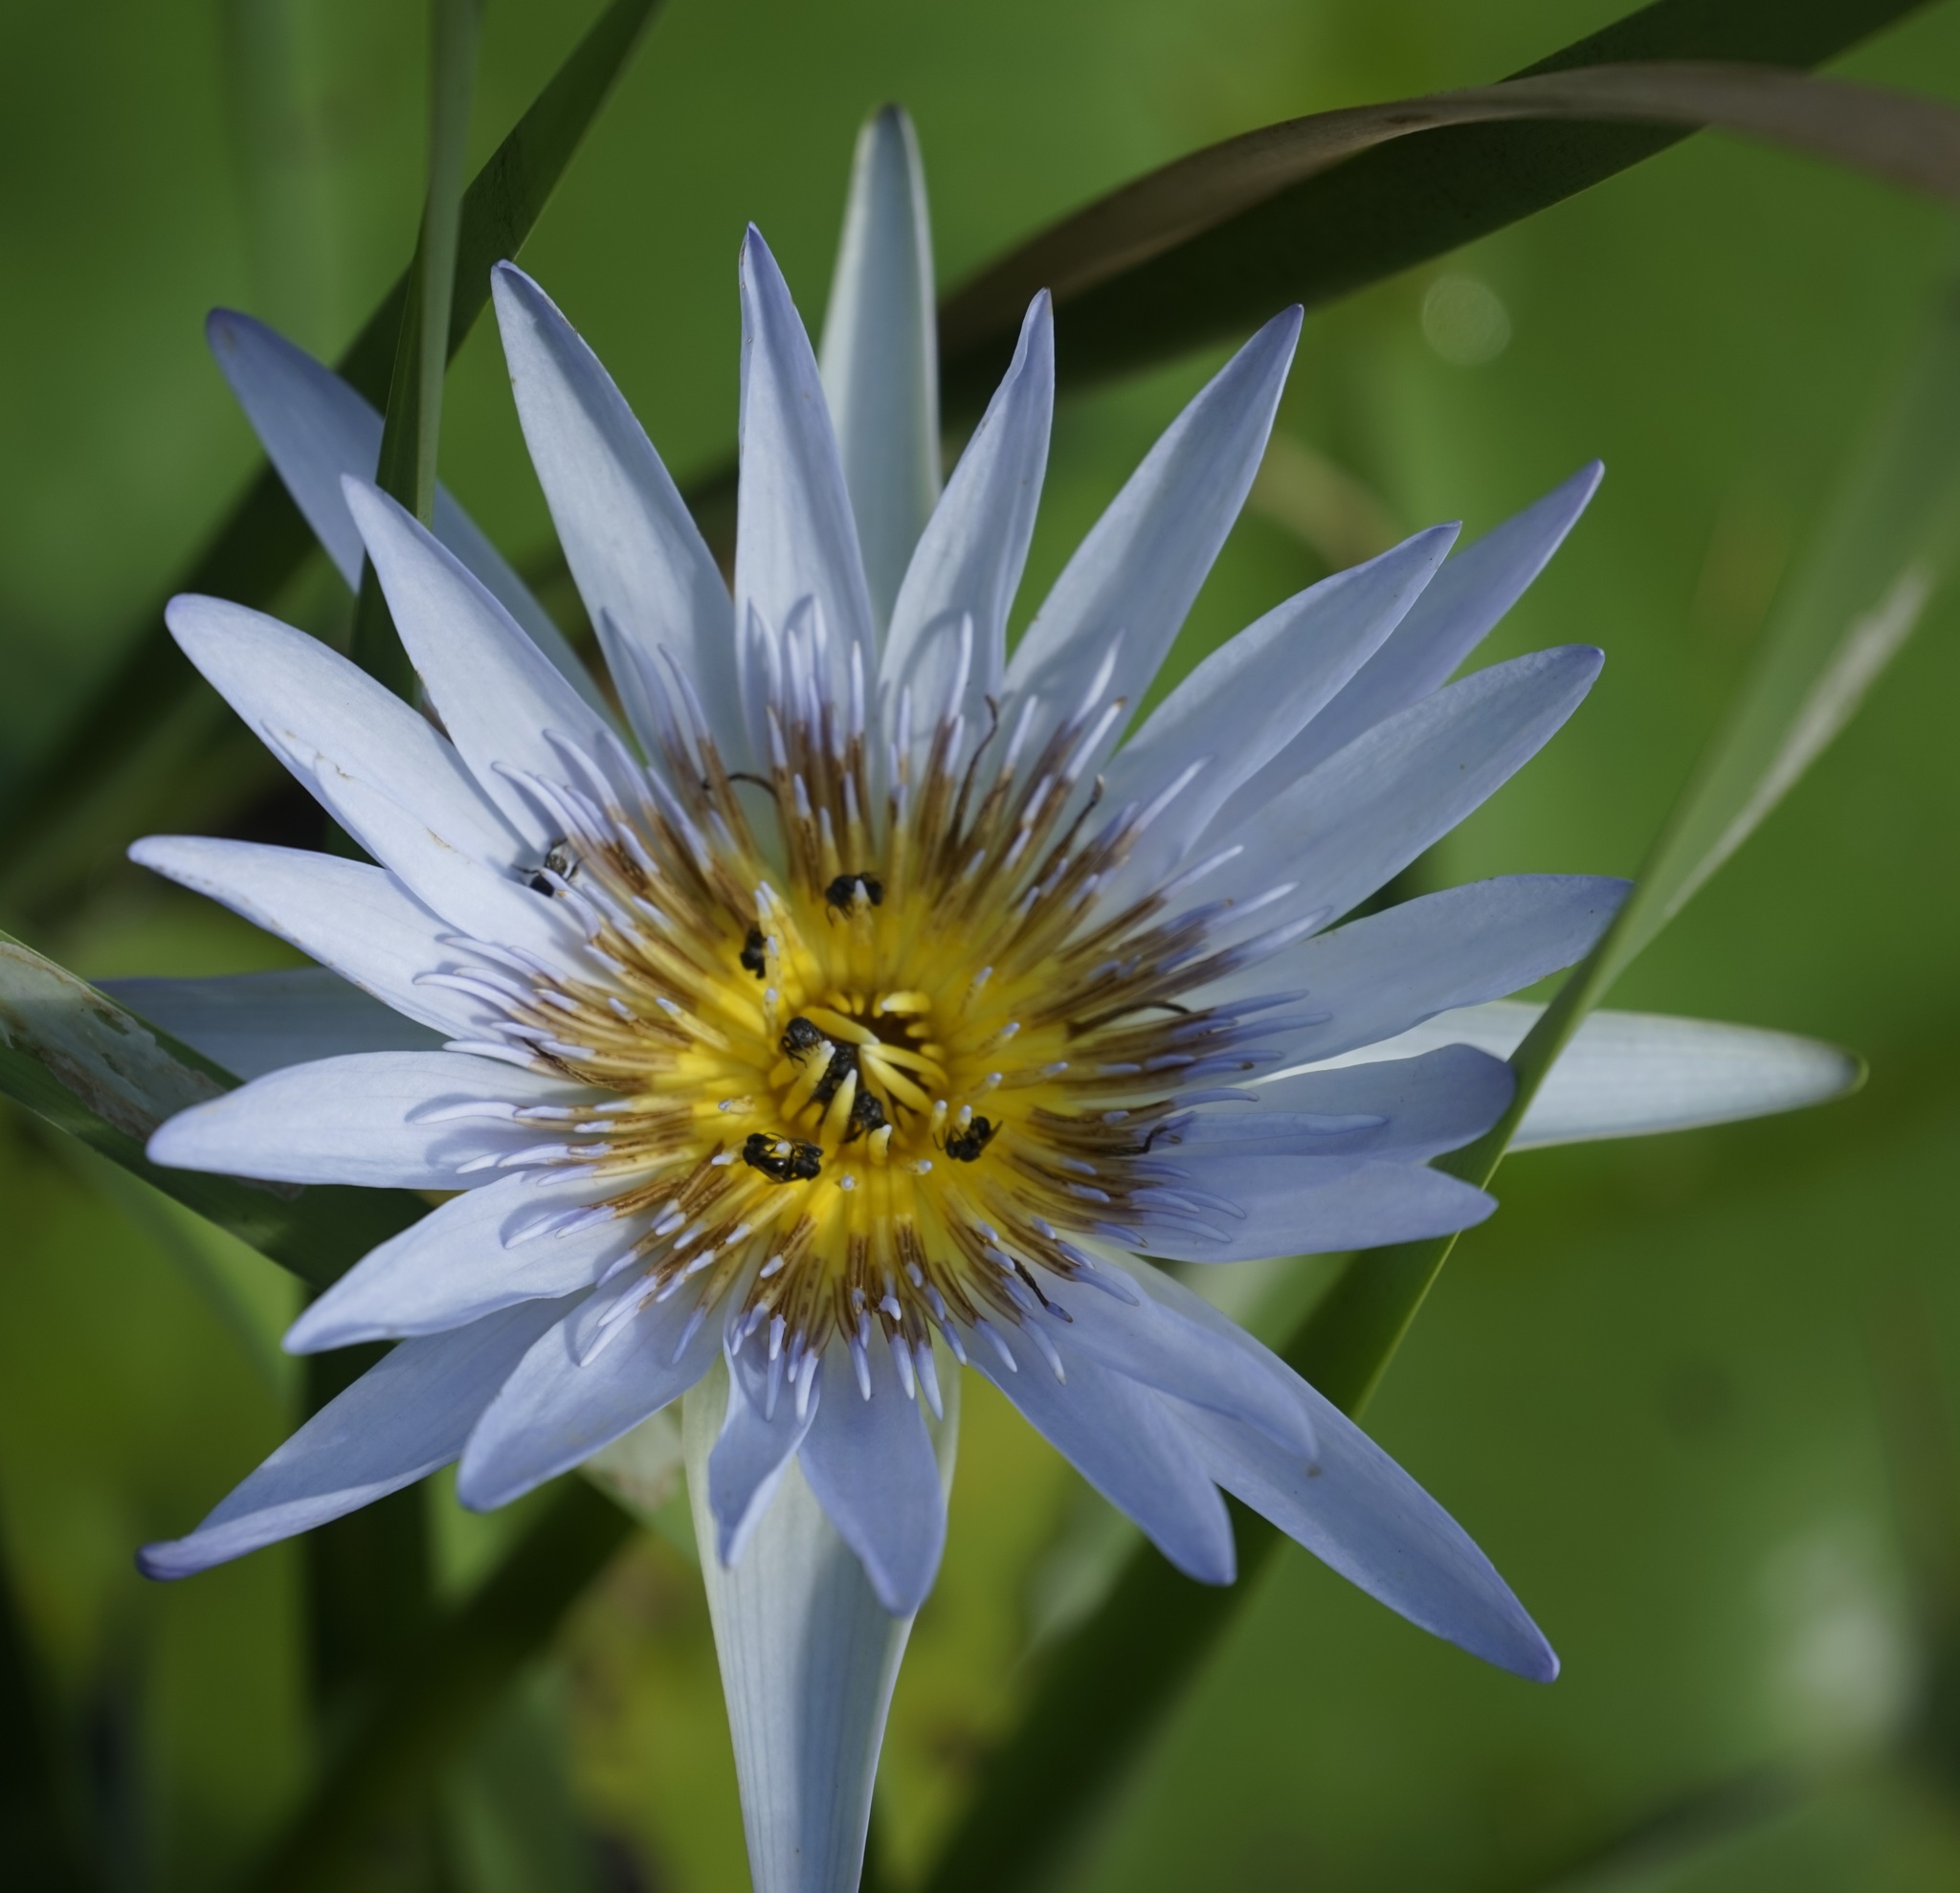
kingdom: Plantae
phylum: Tracheophyta
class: Magnoliopsida
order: Nymphaeales
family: Nymphaeaceae
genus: Nymphaea
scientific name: Nymphaea nouchali
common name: Blue lotus
